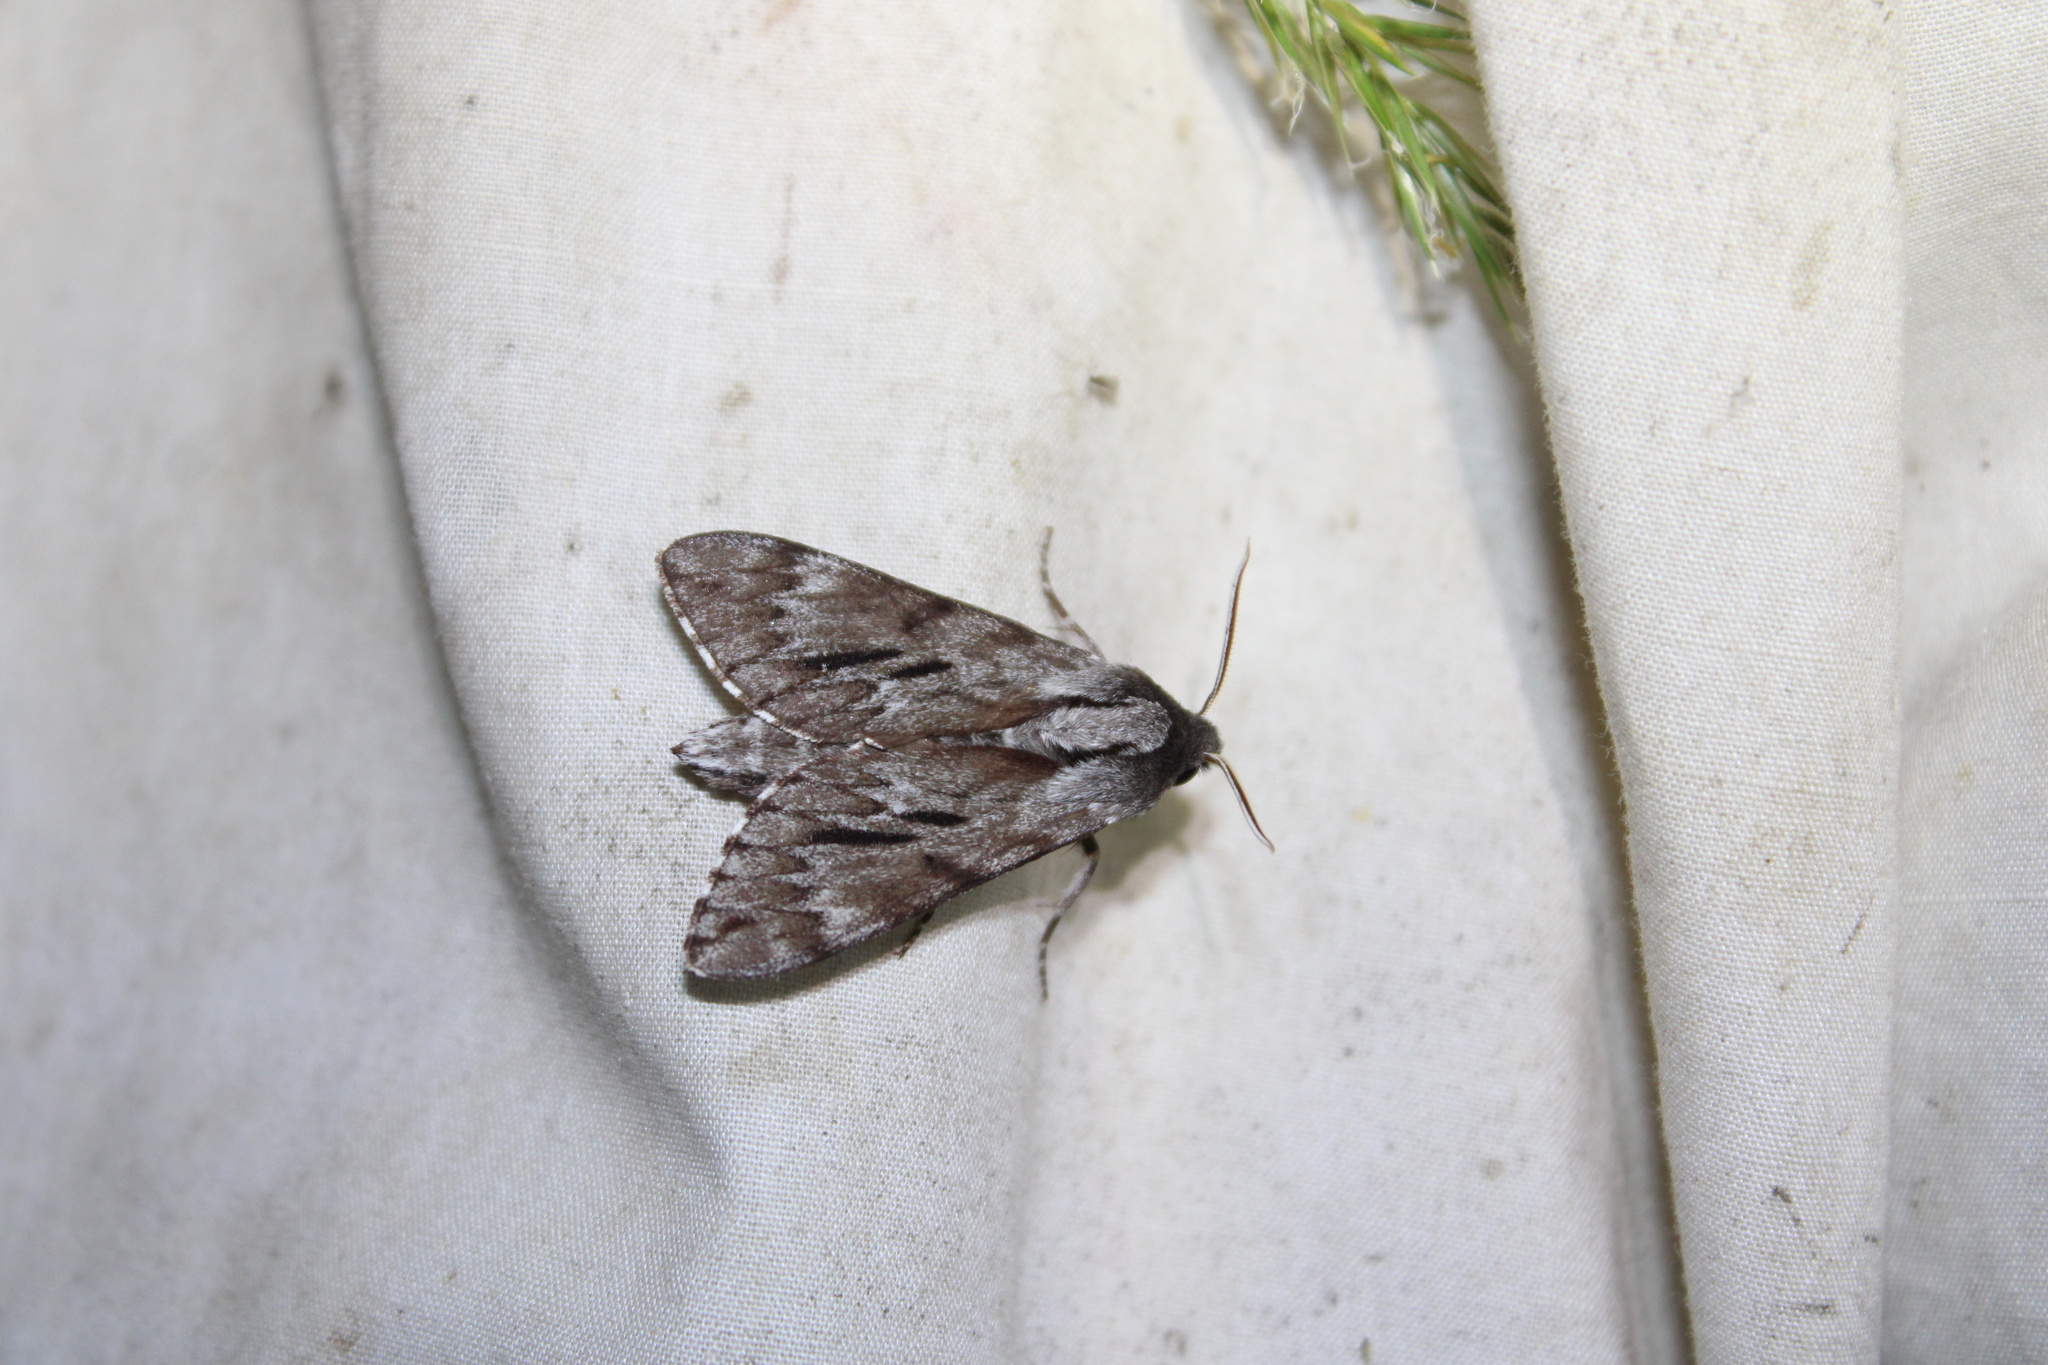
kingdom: Animalia
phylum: Arthropoda
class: Insecta
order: Lepidoptera
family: Sphingidae
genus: Lapara
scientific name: Lapara bombycoides
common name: Northern pine sphinx
